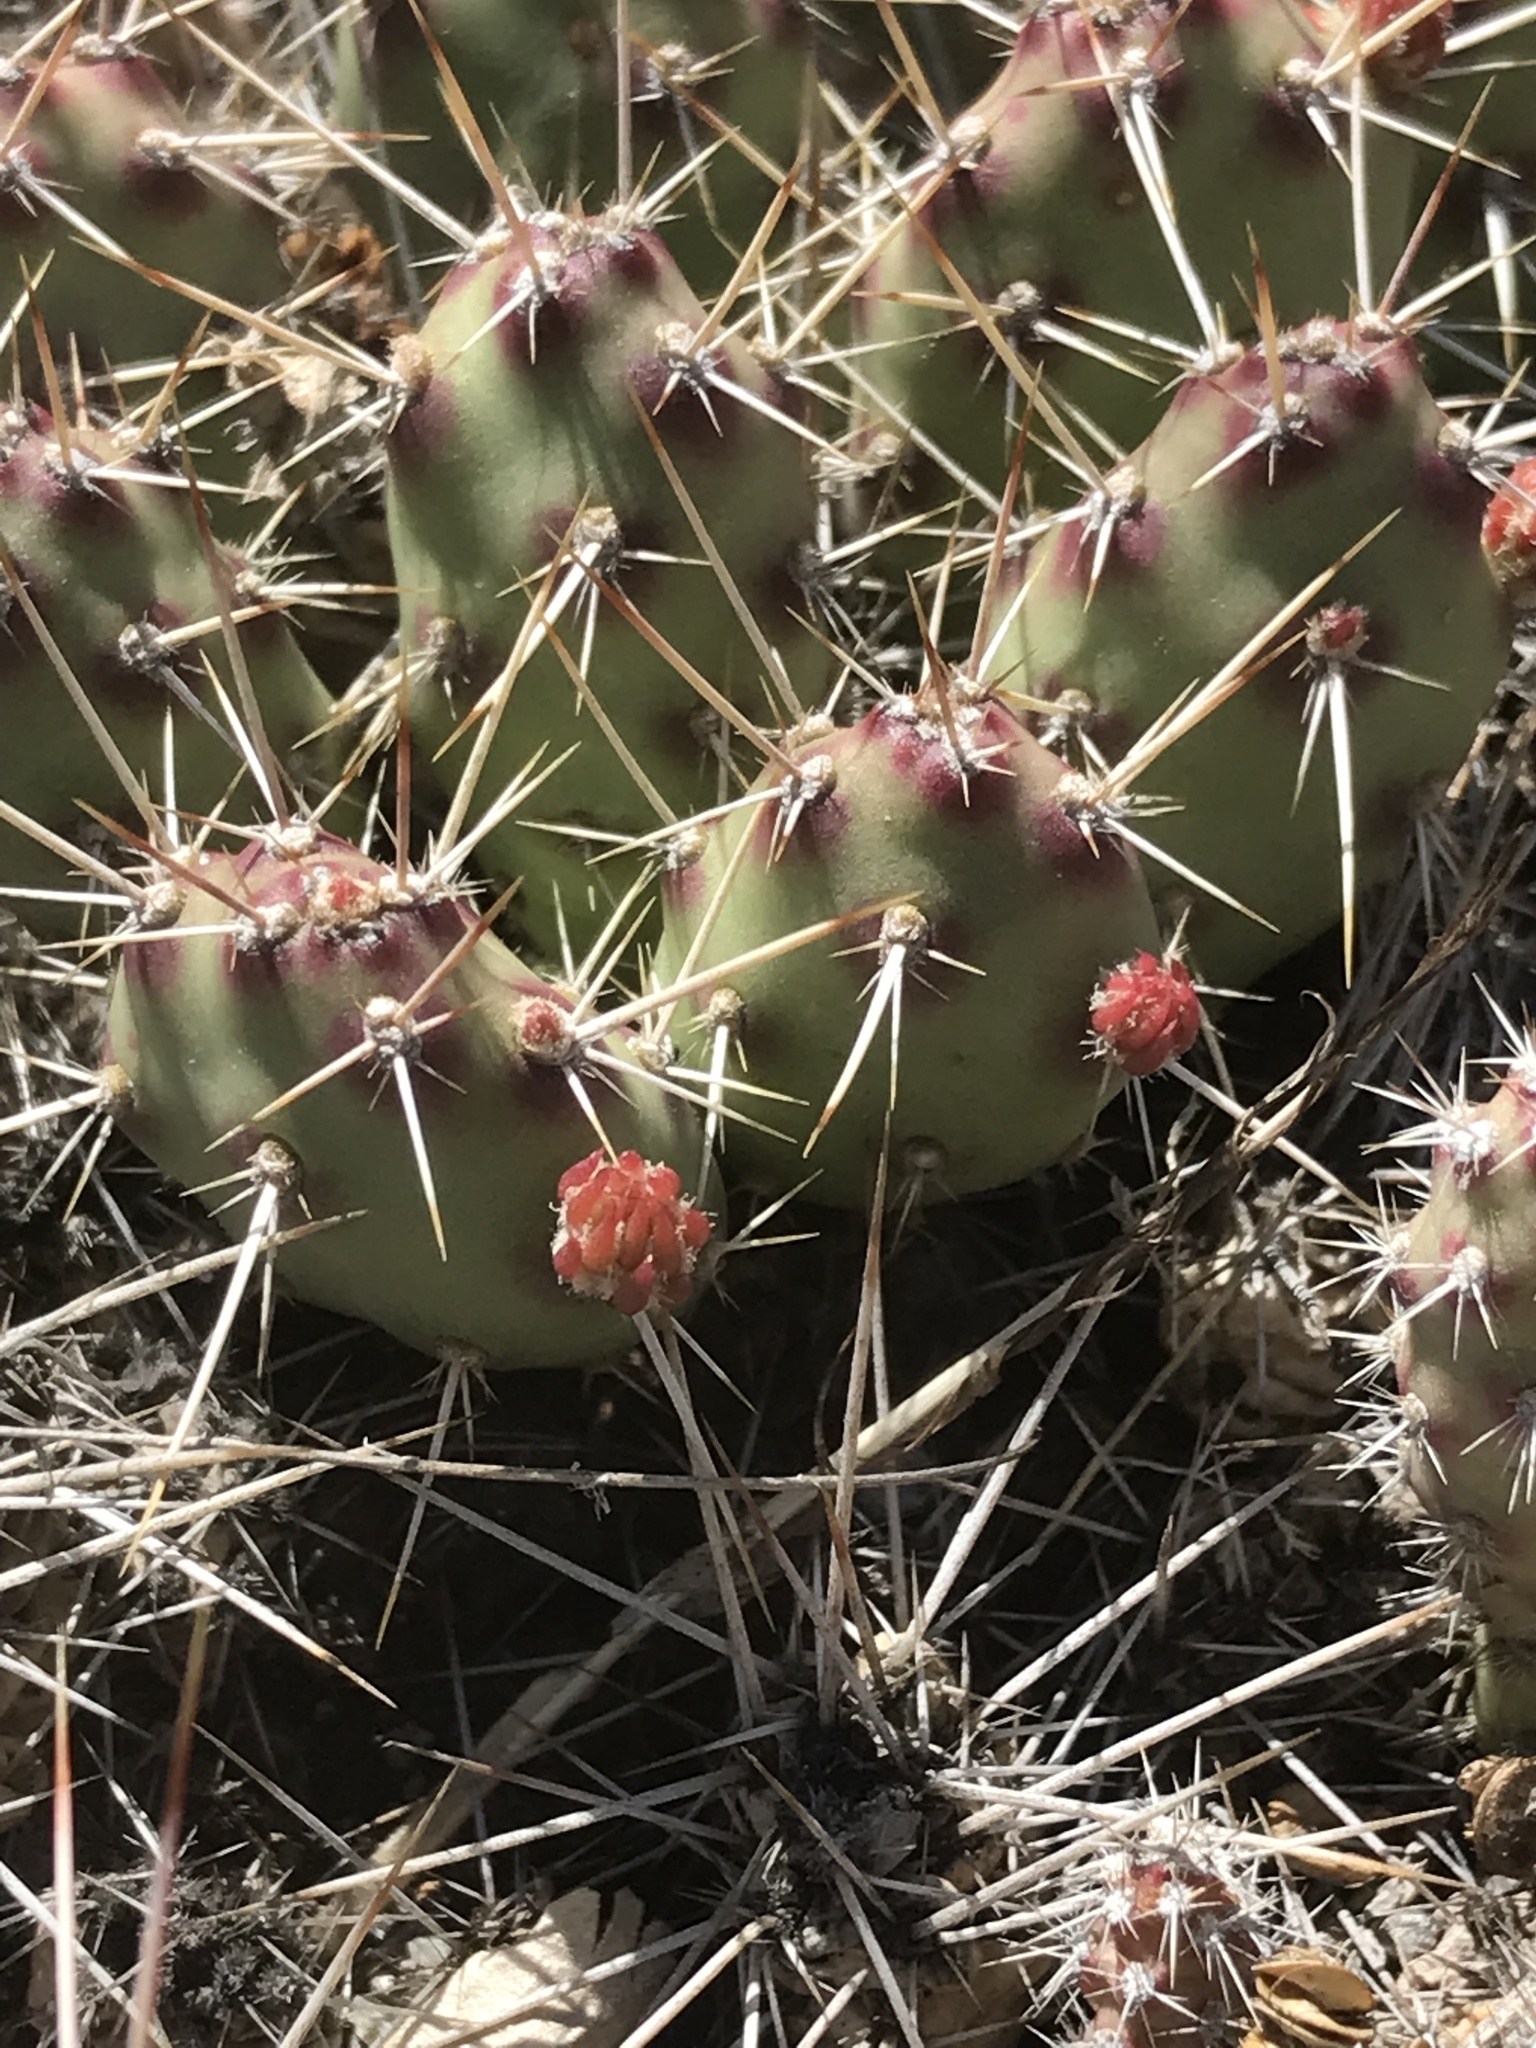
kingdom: Plantae
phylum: Tracheophyta
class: Magnoliopsida
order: Caryophyllales
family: Cactaceae
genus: Opuntia
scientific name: Opuntia fragilis
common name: Brittle cactus
